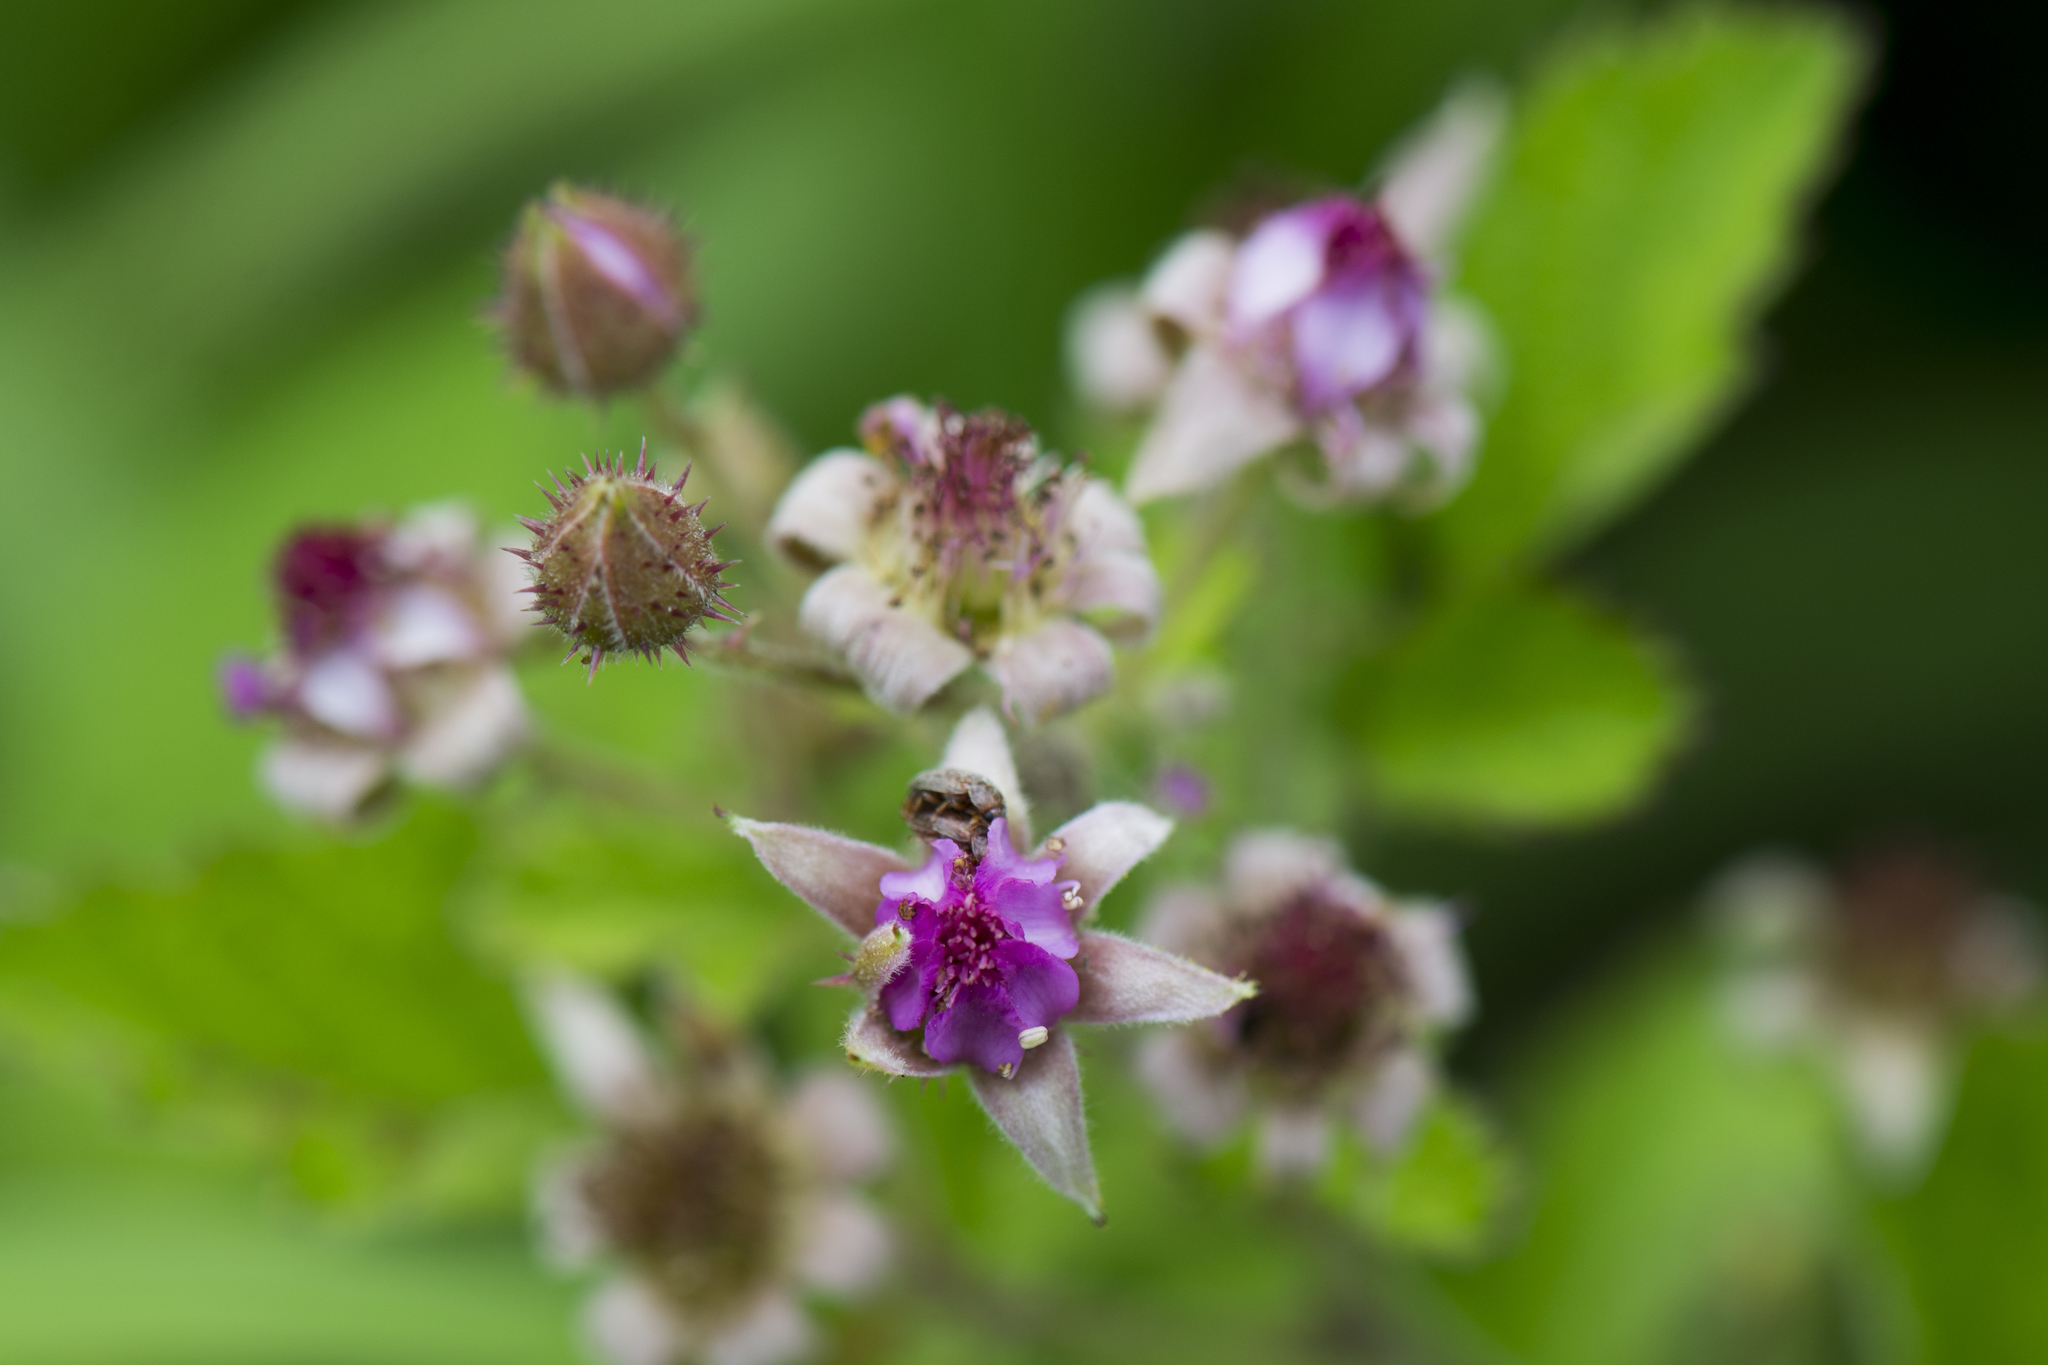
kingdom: Plantae
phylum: Tracheophyta
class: Magnoliopsida
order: Rosales
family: Rosaceae
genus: Rubus
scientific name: Rubus parvifolius
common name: Threeleaf blackberry
